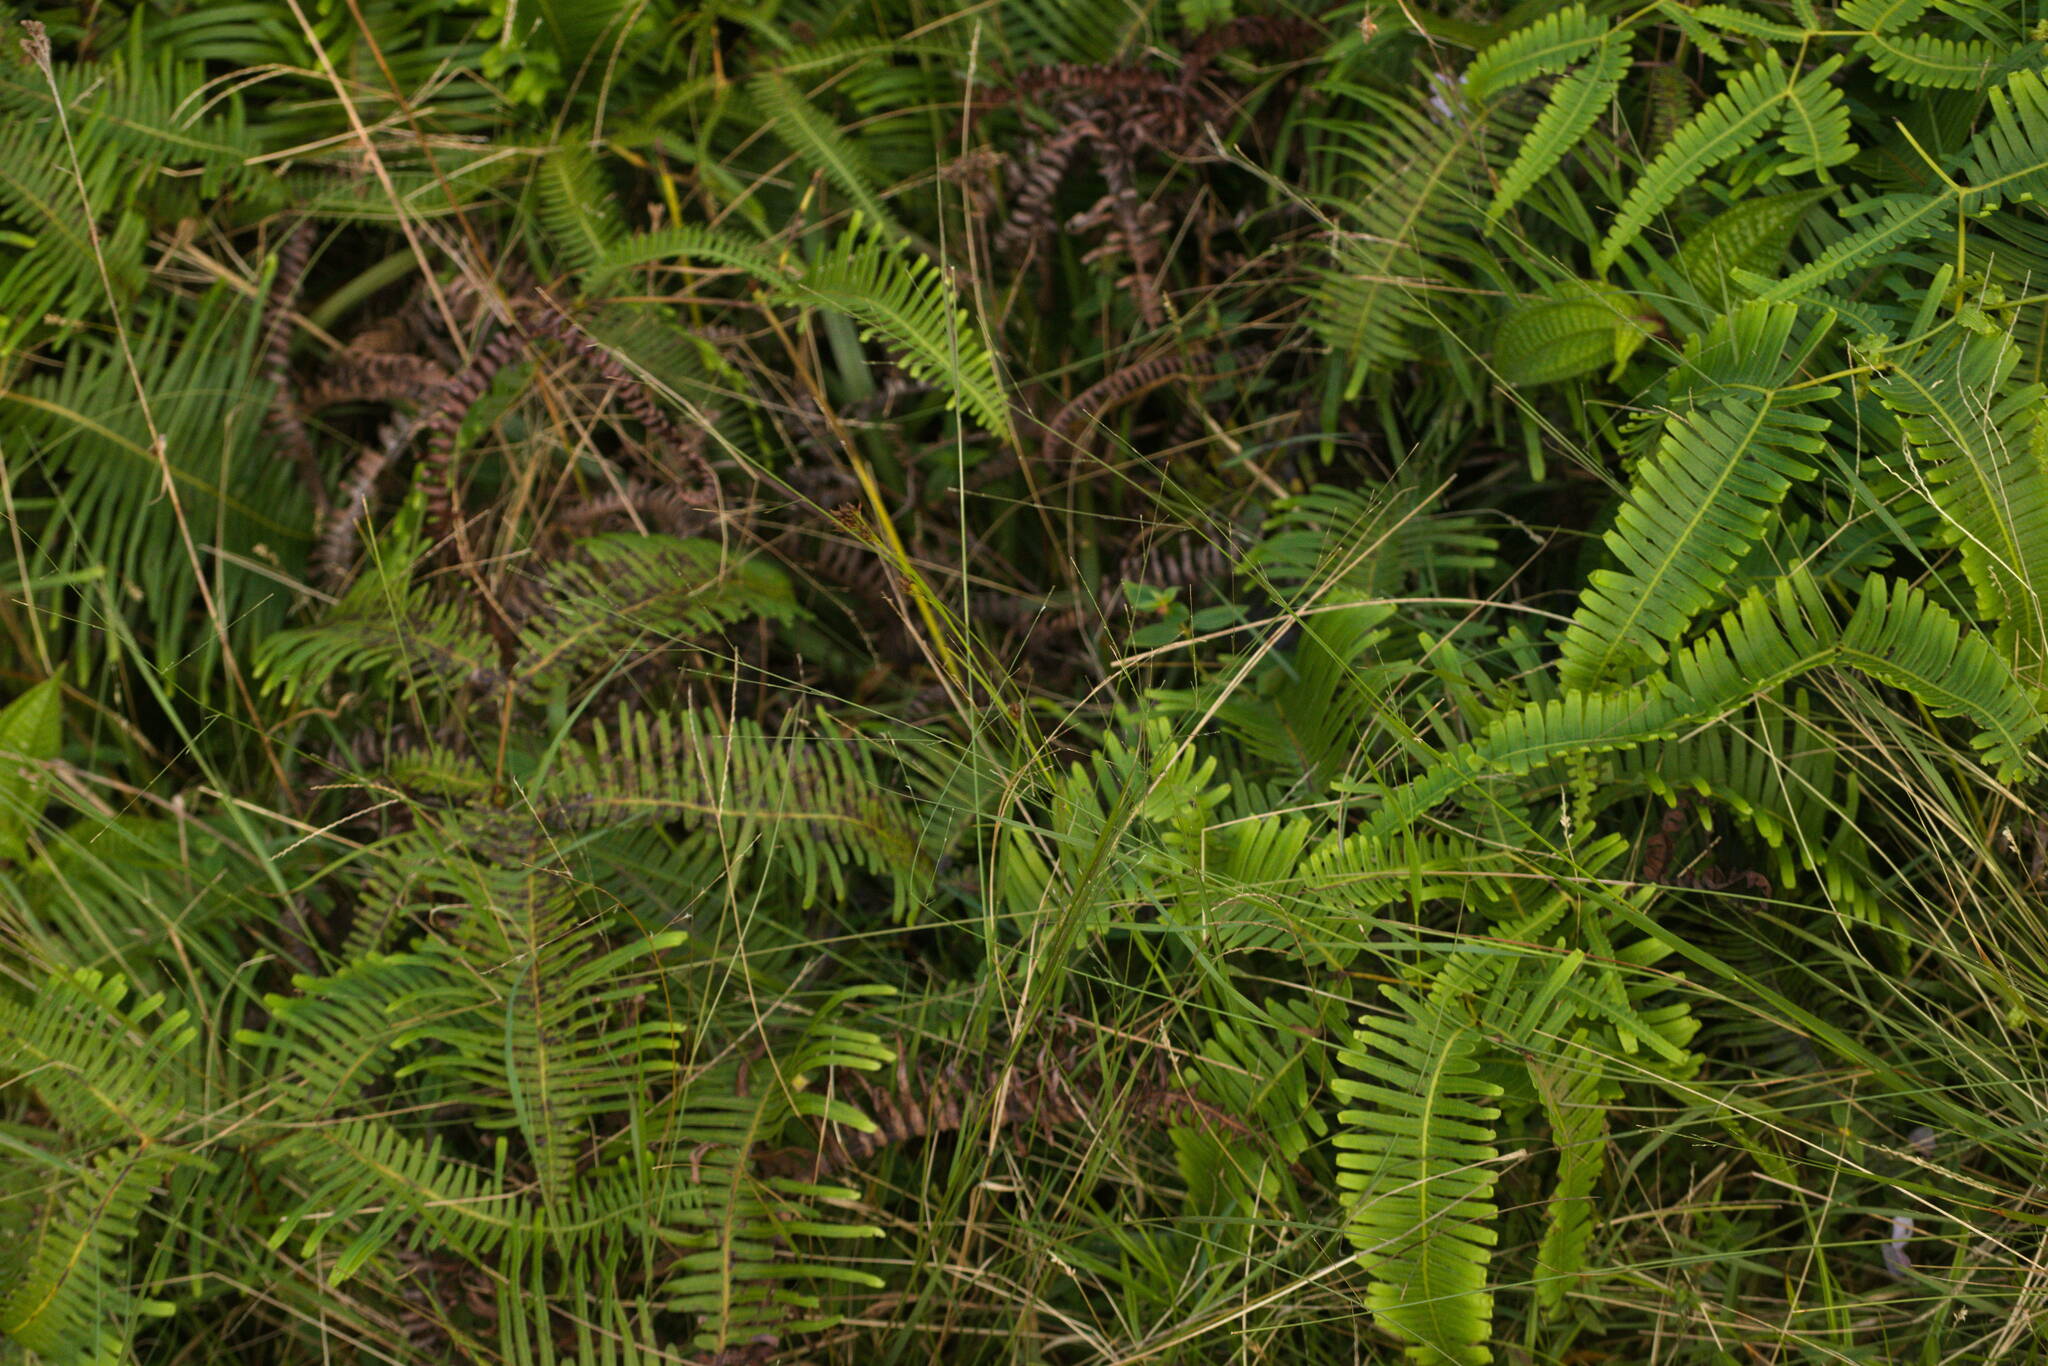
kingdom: Plantae
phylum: Tracheophyta
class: Liliopsida
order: Poales
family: Poaceae
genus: Axonopus
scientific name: Axonopus fissifolius
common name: Common carpetgrass
